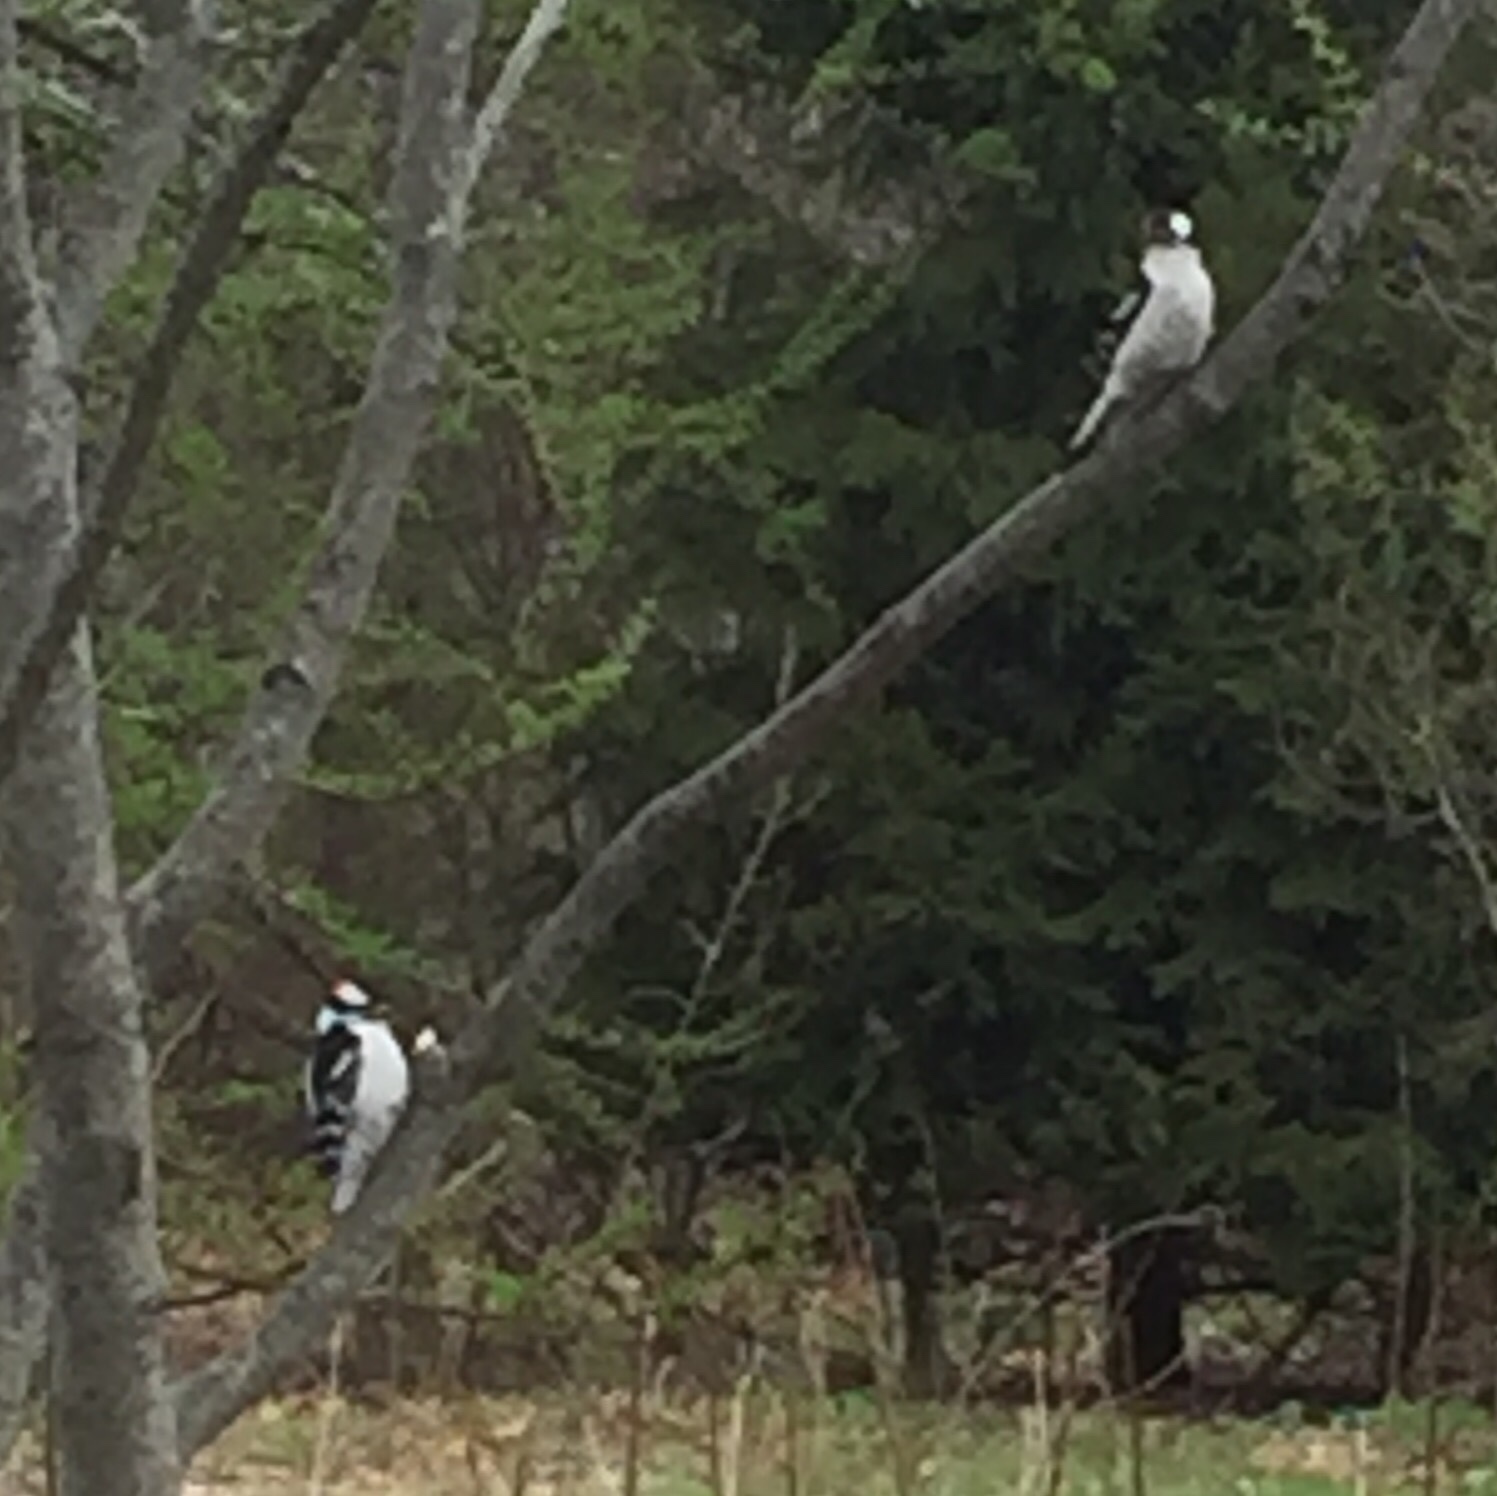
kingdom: Animalia
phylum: Chordata
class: Aves
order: Piciformes
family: Picidae
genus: Dryobates
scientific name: Dryobates pubescens
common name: Downy woodpecker
